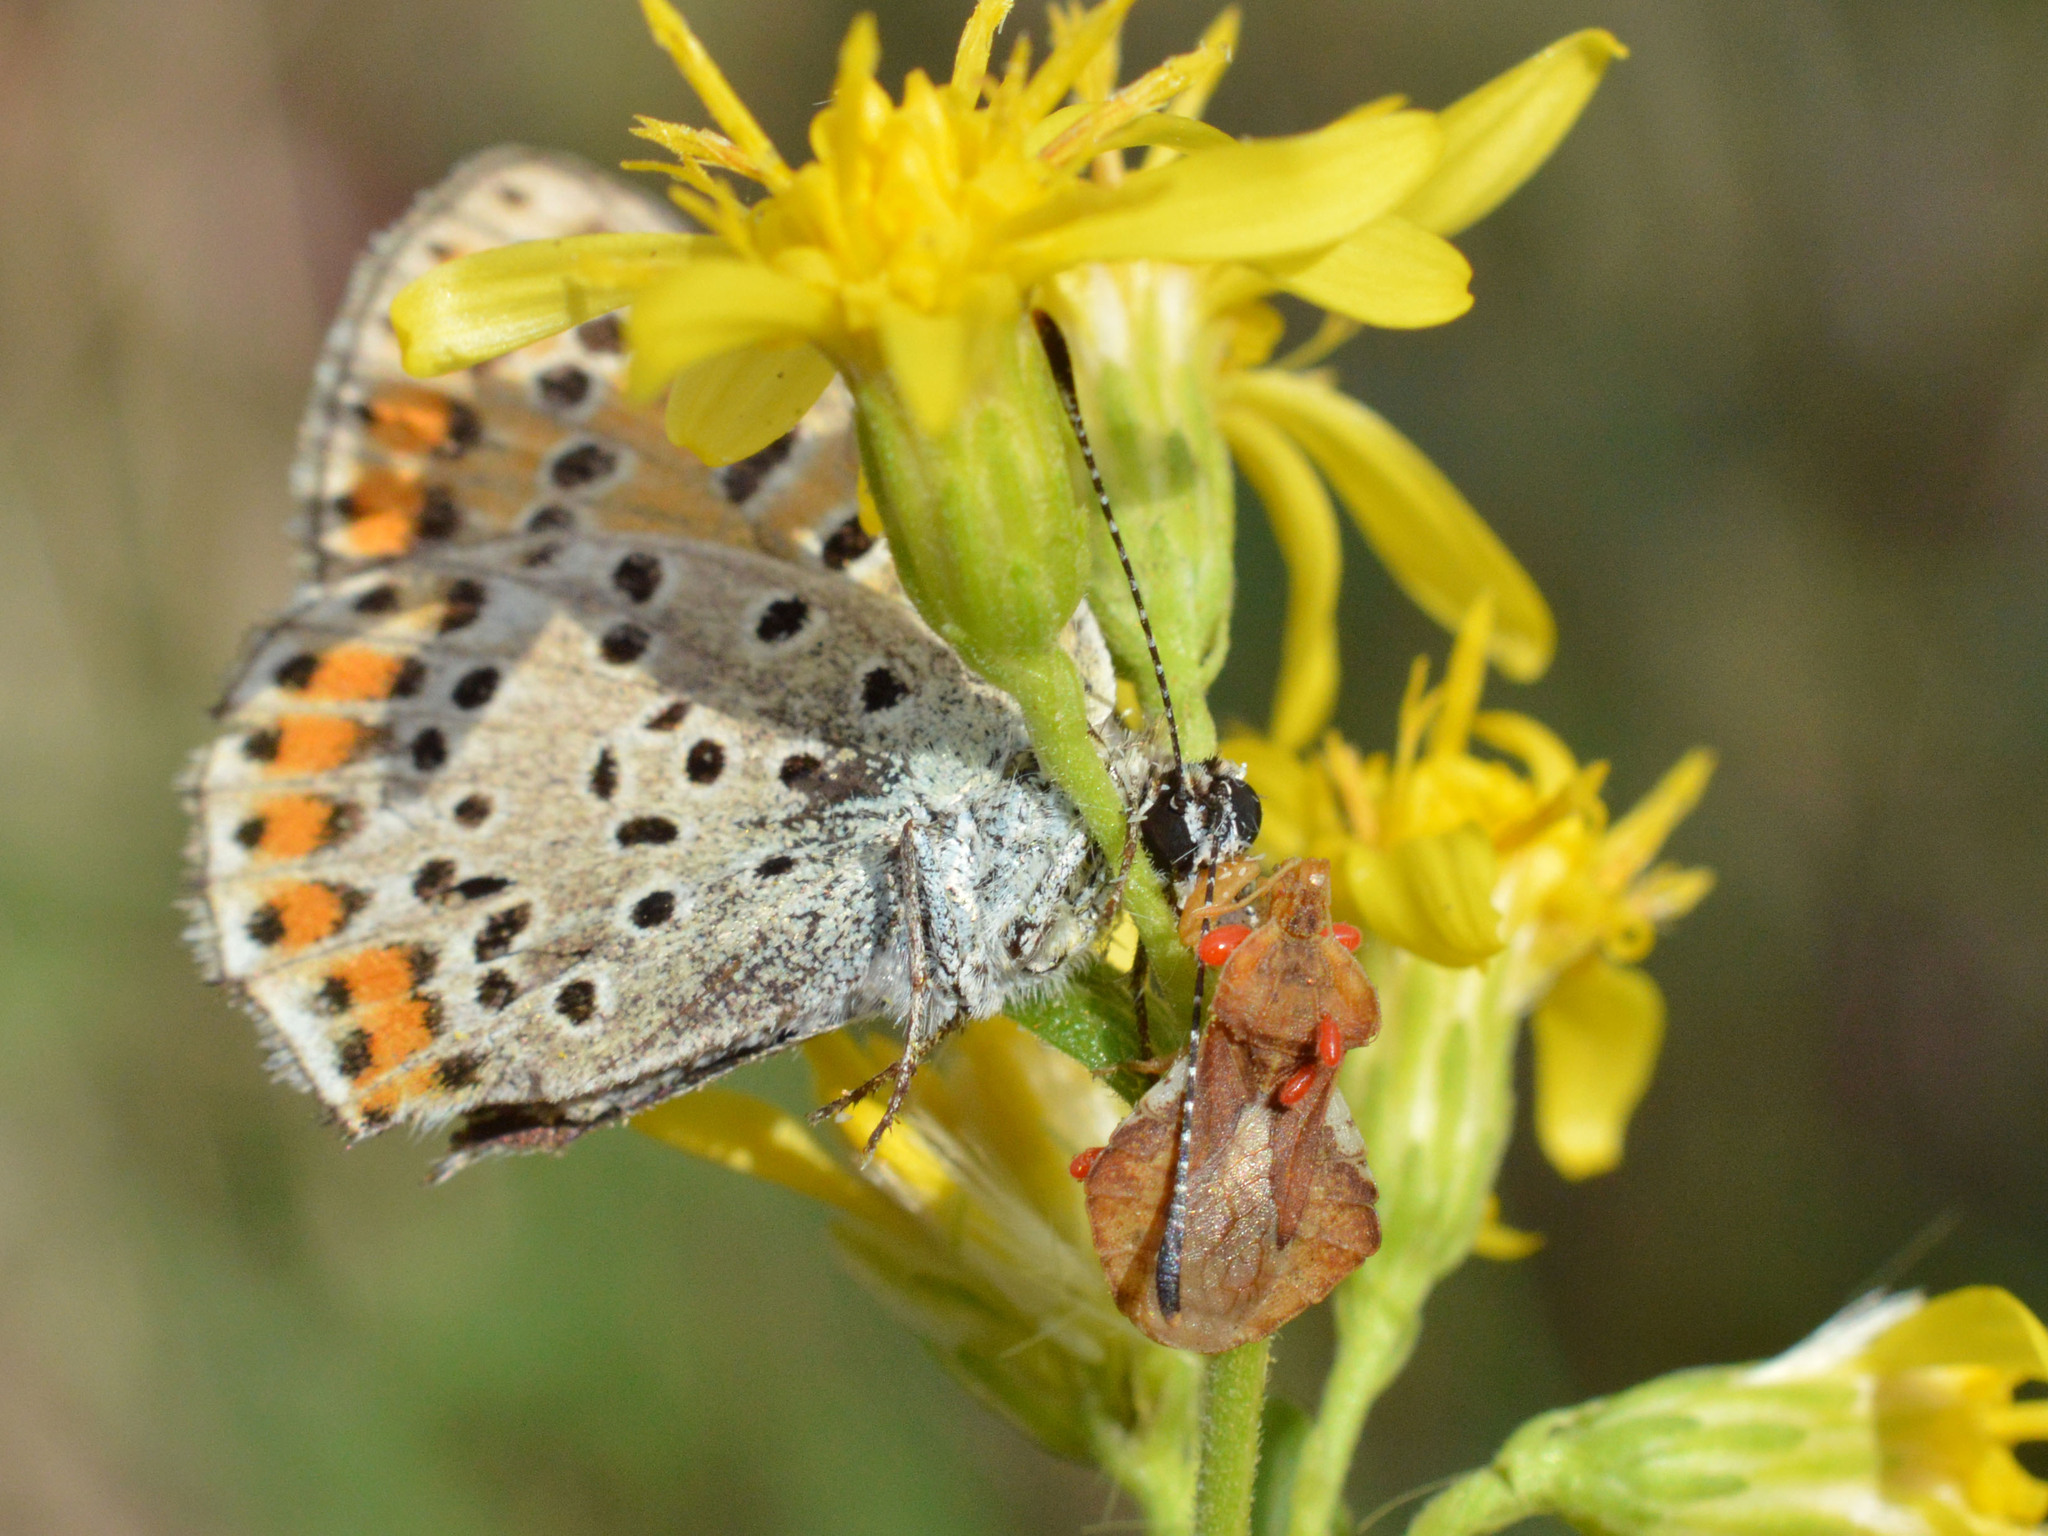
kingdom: Animalia
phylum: Arthropoda
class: Insecta
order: Lepidoptera
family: Lycaenidae
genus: Loweia
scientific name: Loweia tityrus
